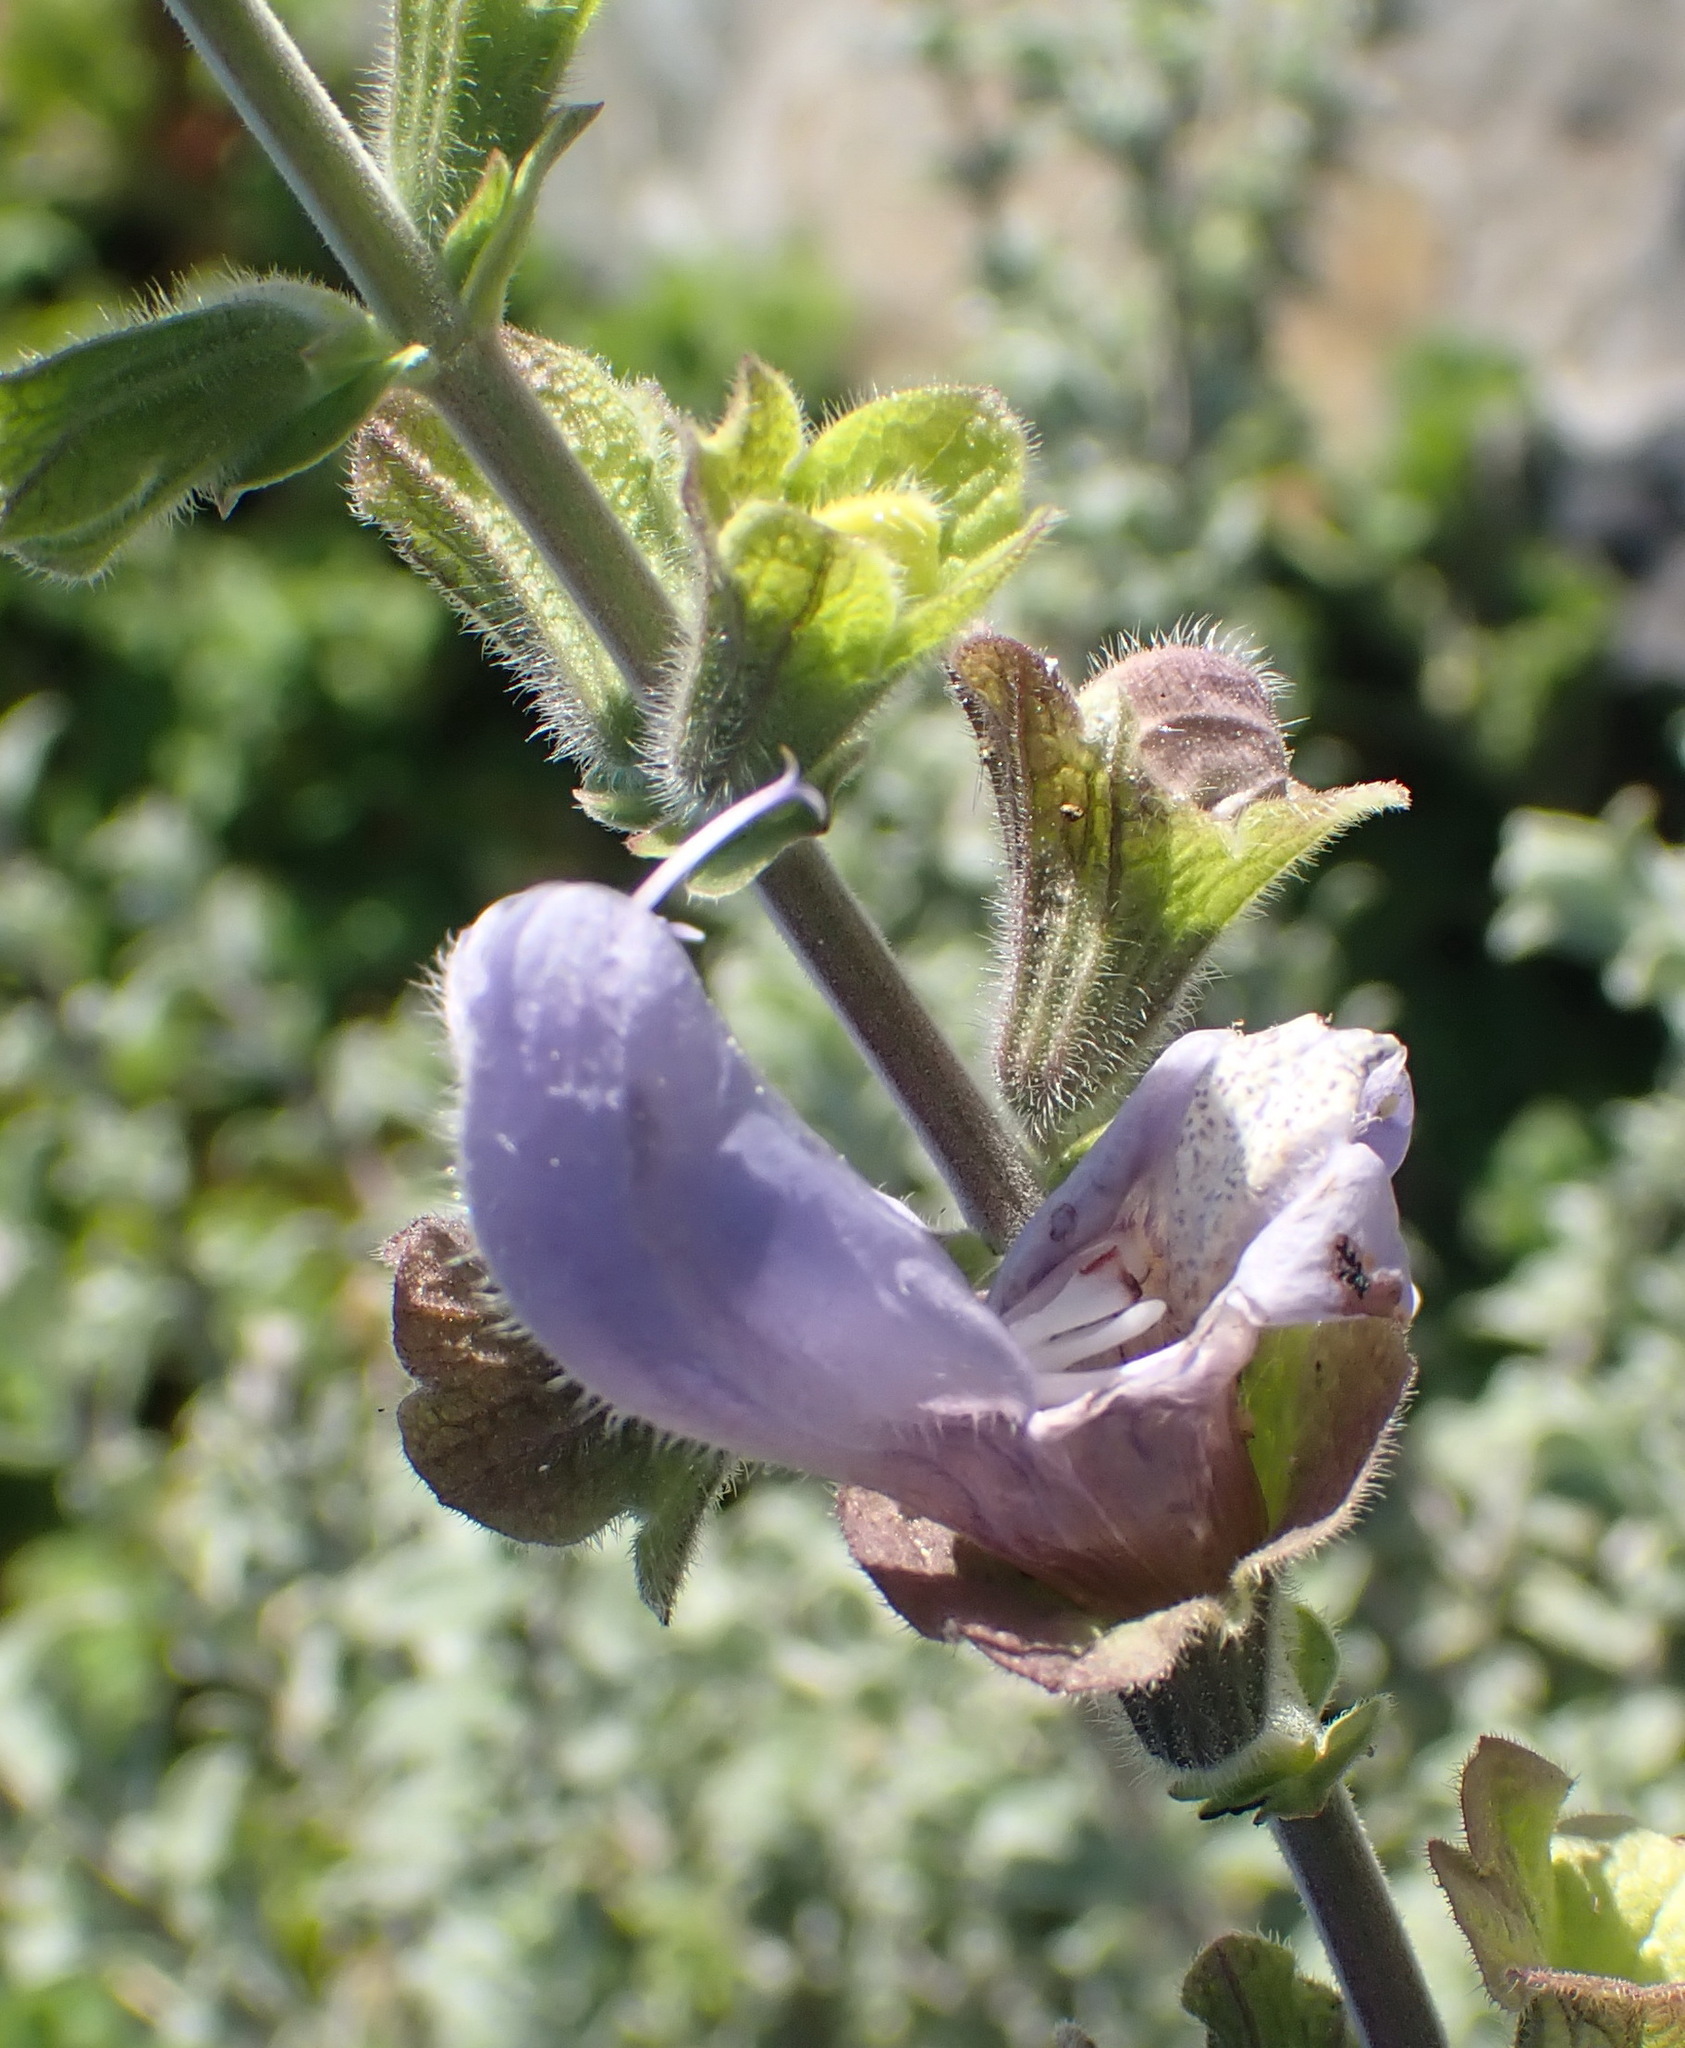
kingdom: Plantae
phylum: Tracheophyta
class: Magnoliopsida
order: Lamiales
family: Lamiaceae
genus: Salvia
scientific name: Salvia africana
